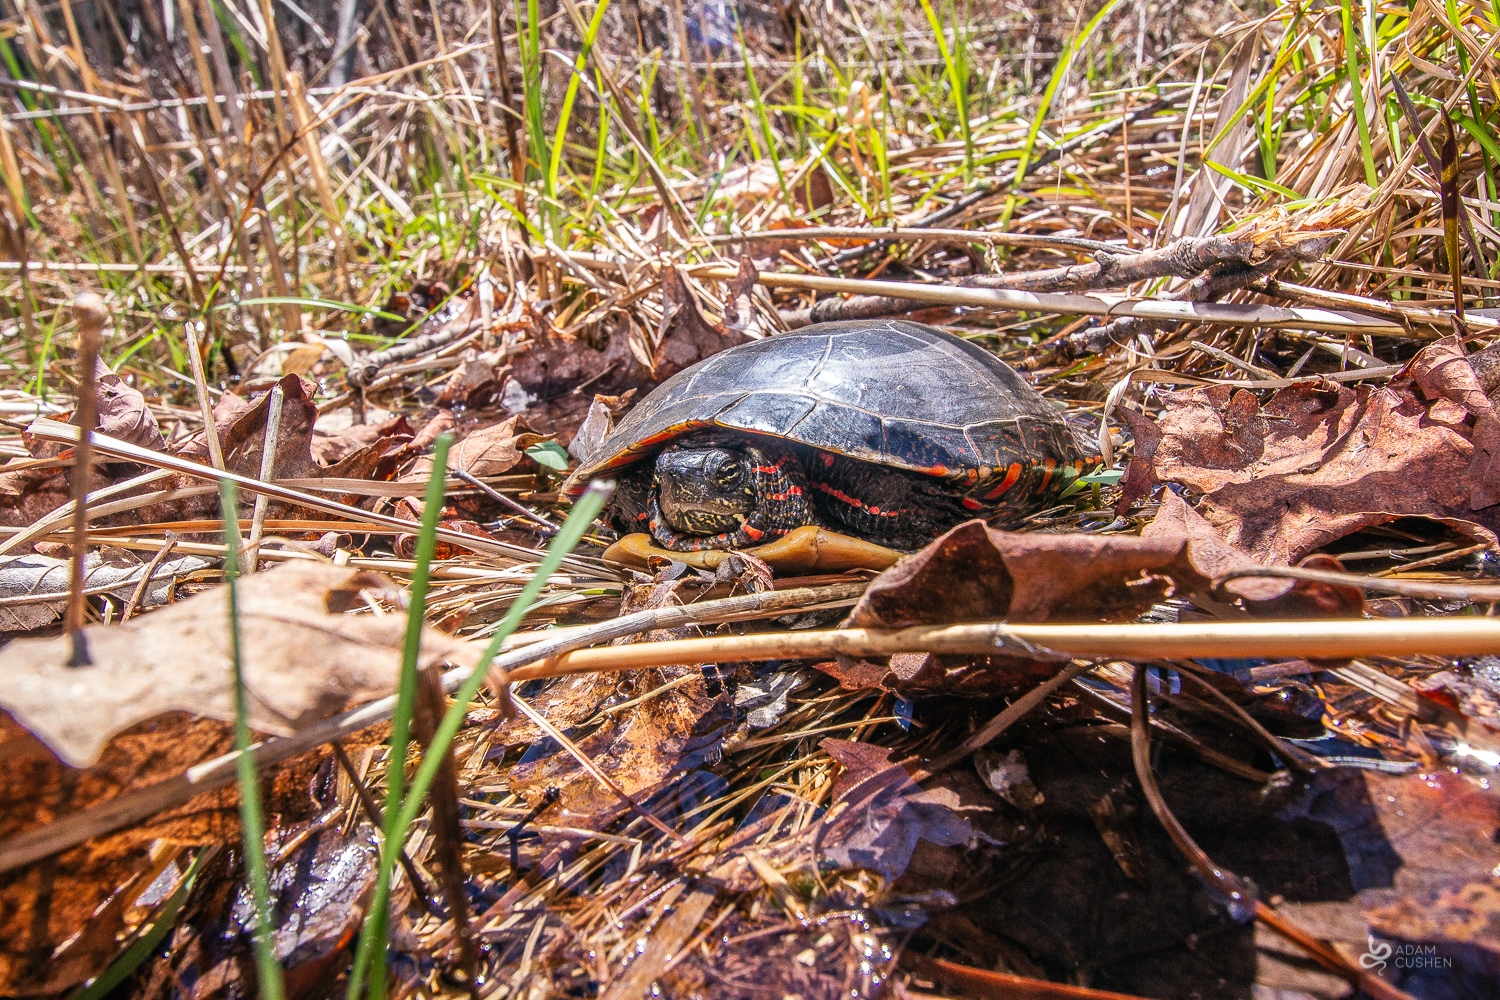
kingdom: Animalia
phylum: Chordata
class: Testudines
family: Emydidae
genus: Chrysemys
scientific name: Chrysemys picta
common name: Painted turtle
